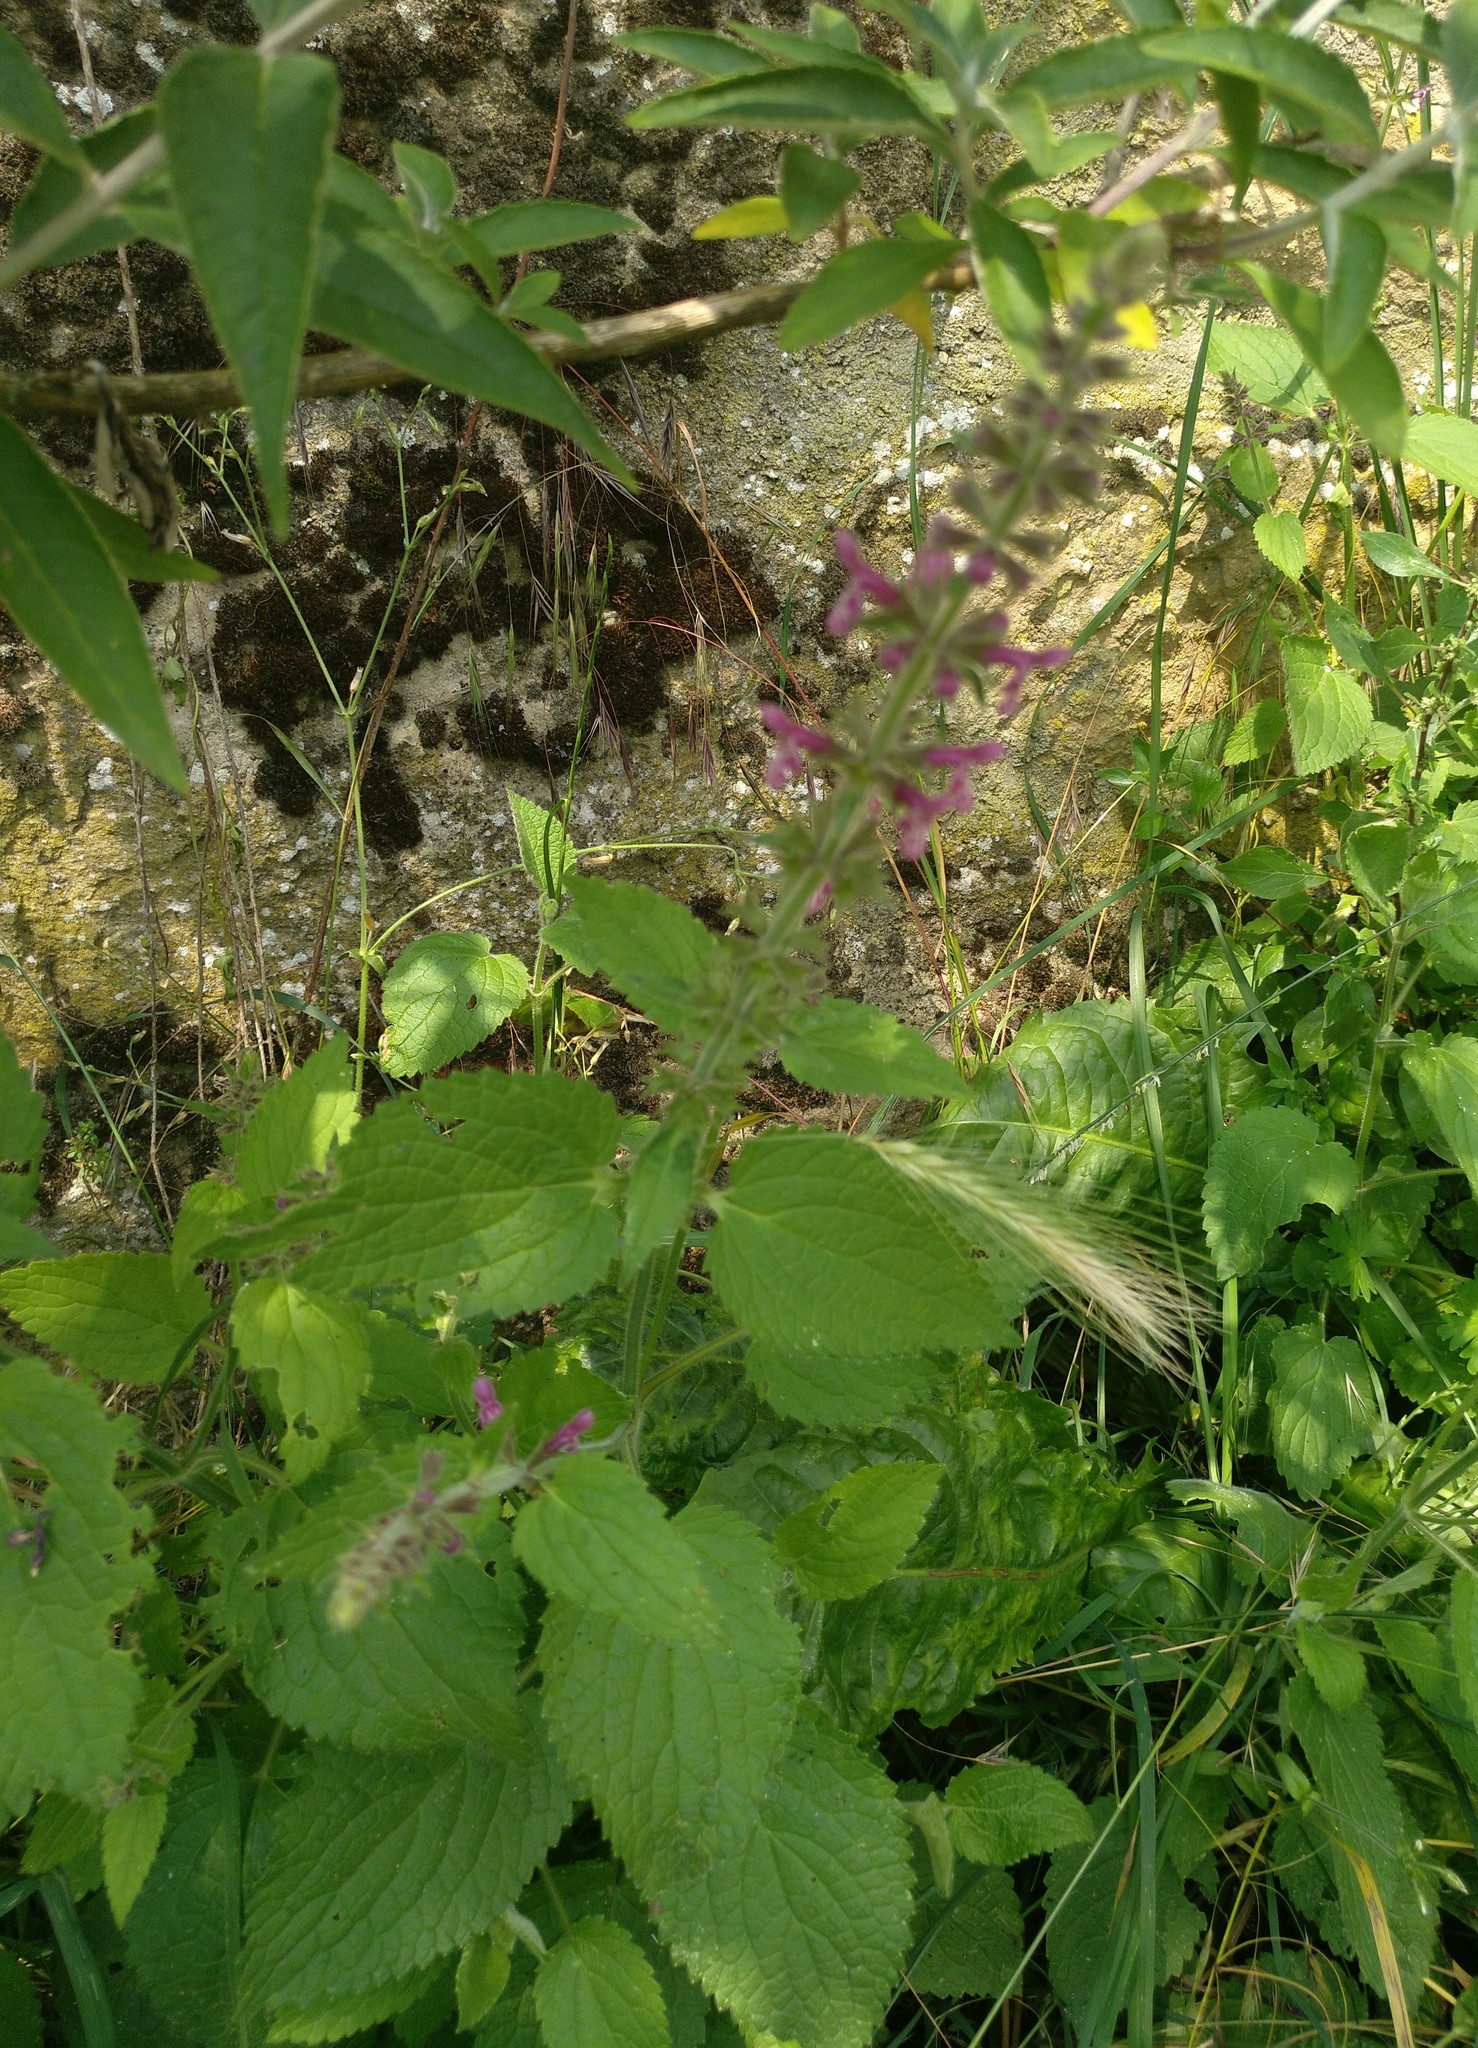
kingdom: Plantae
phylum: Tracheophyta
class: Magnoliopsida
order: Lamiales
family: Lamiaceae
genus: Stachys
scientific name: Stachys sylvatica
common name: Hedge woundwort
